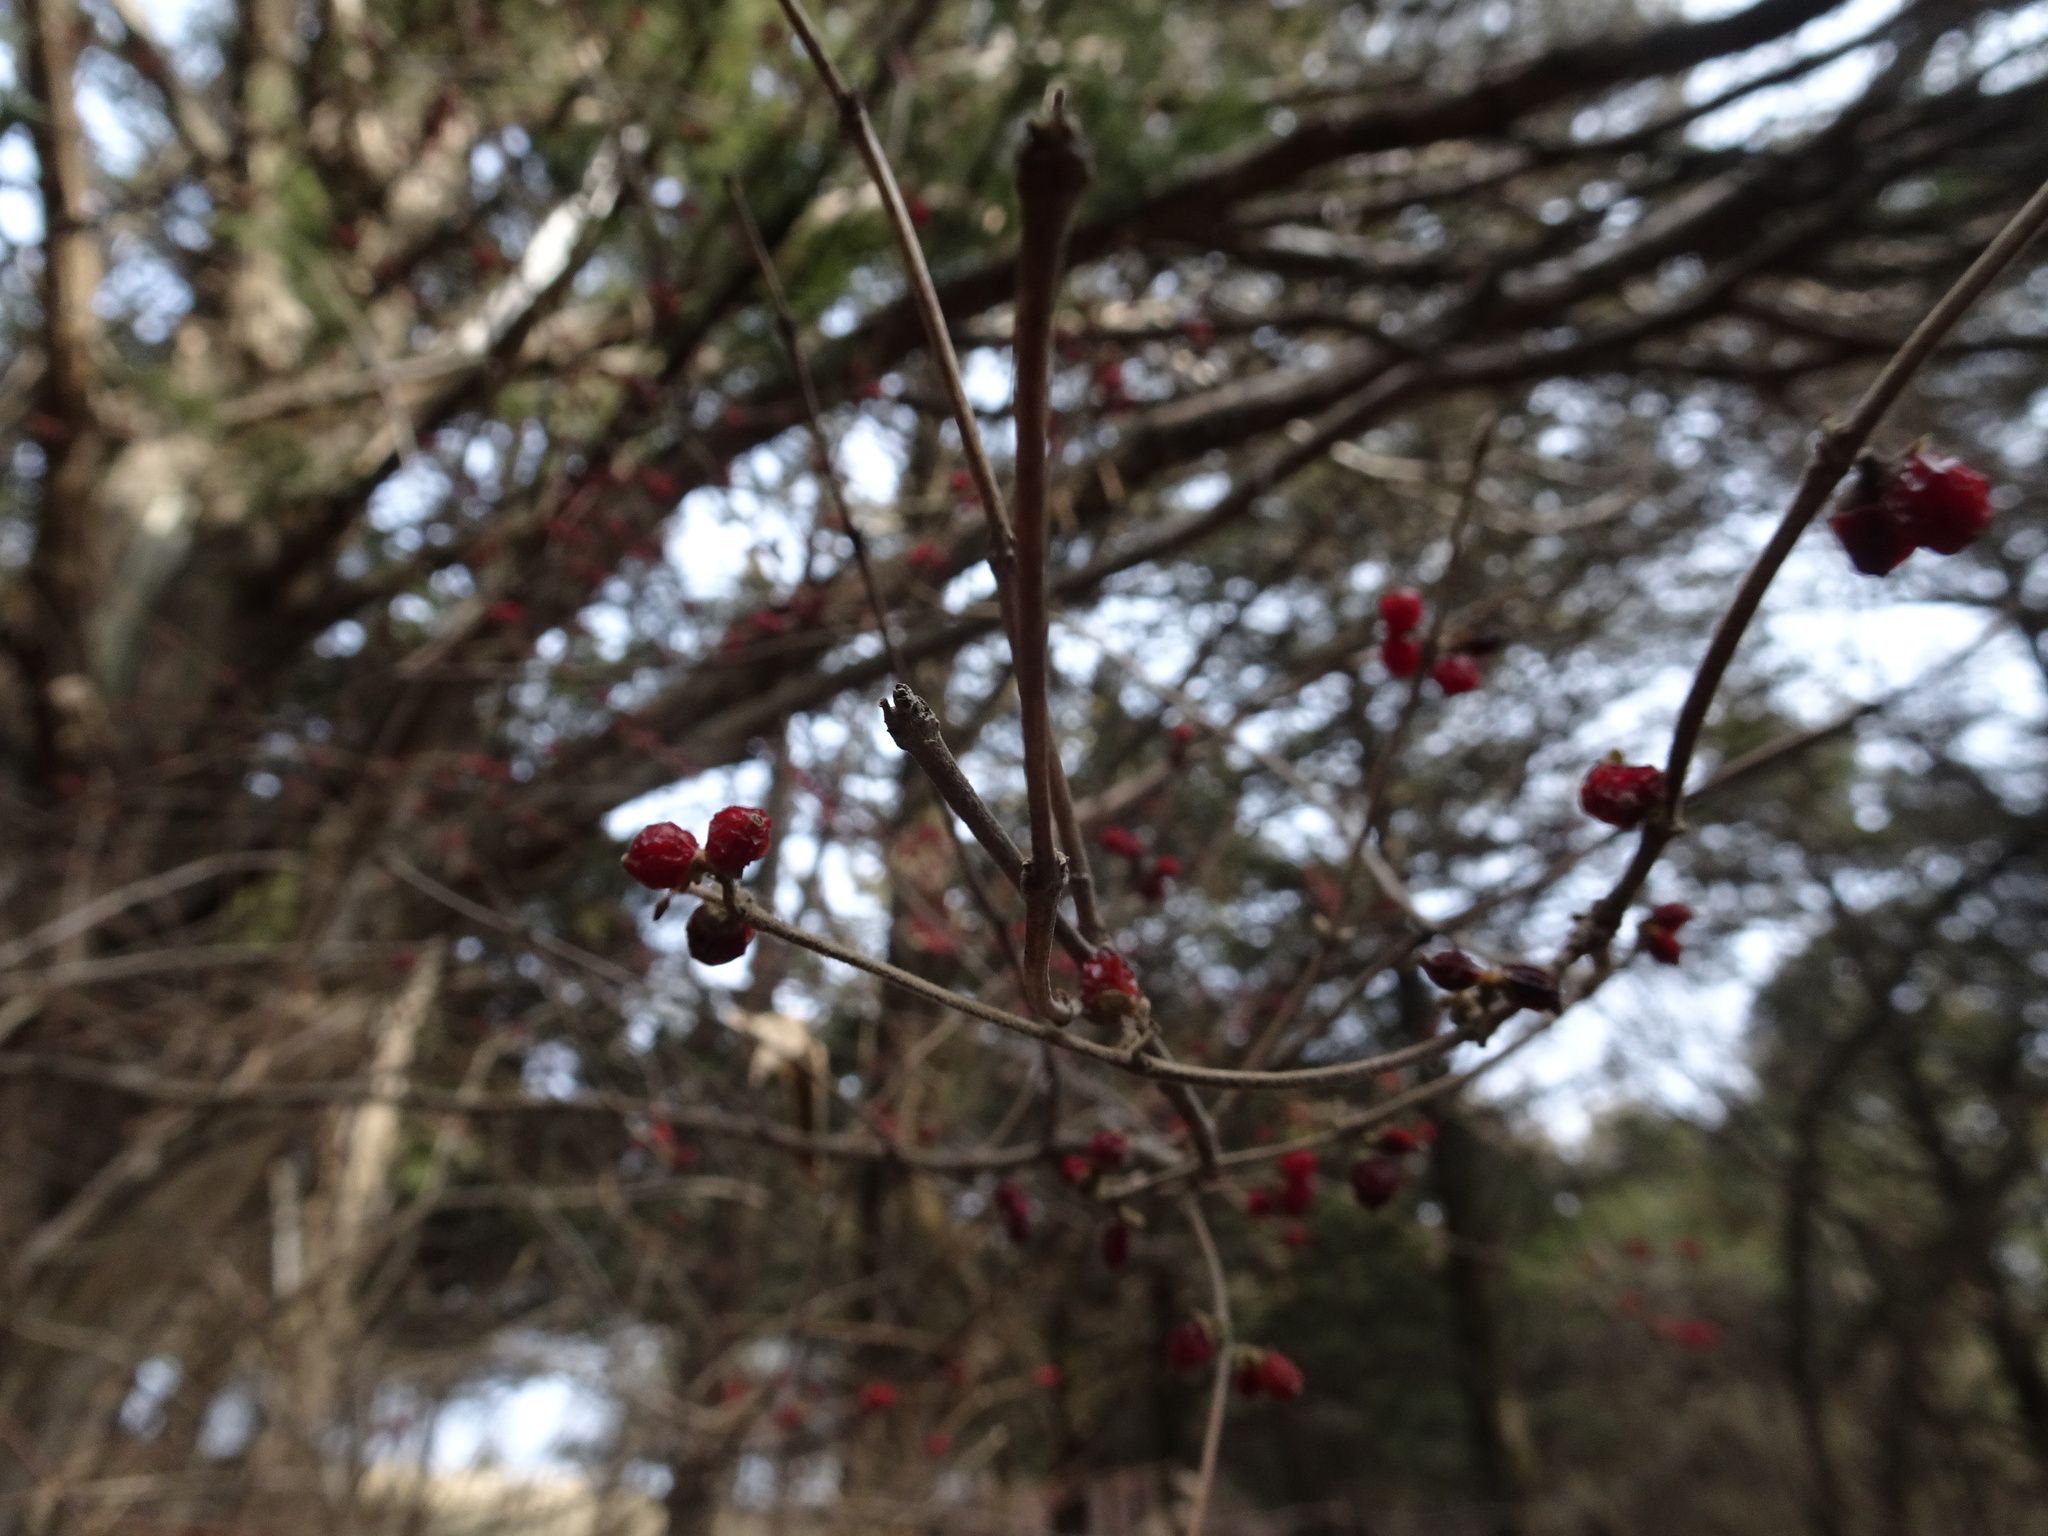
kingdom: Plantae
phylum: Tracheophyta
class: Magnoliopsida
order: Dipsacales
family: Caprifoliaceae
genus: Lonicera
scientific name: Lonicera maackii
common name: Amur honeysuckle
